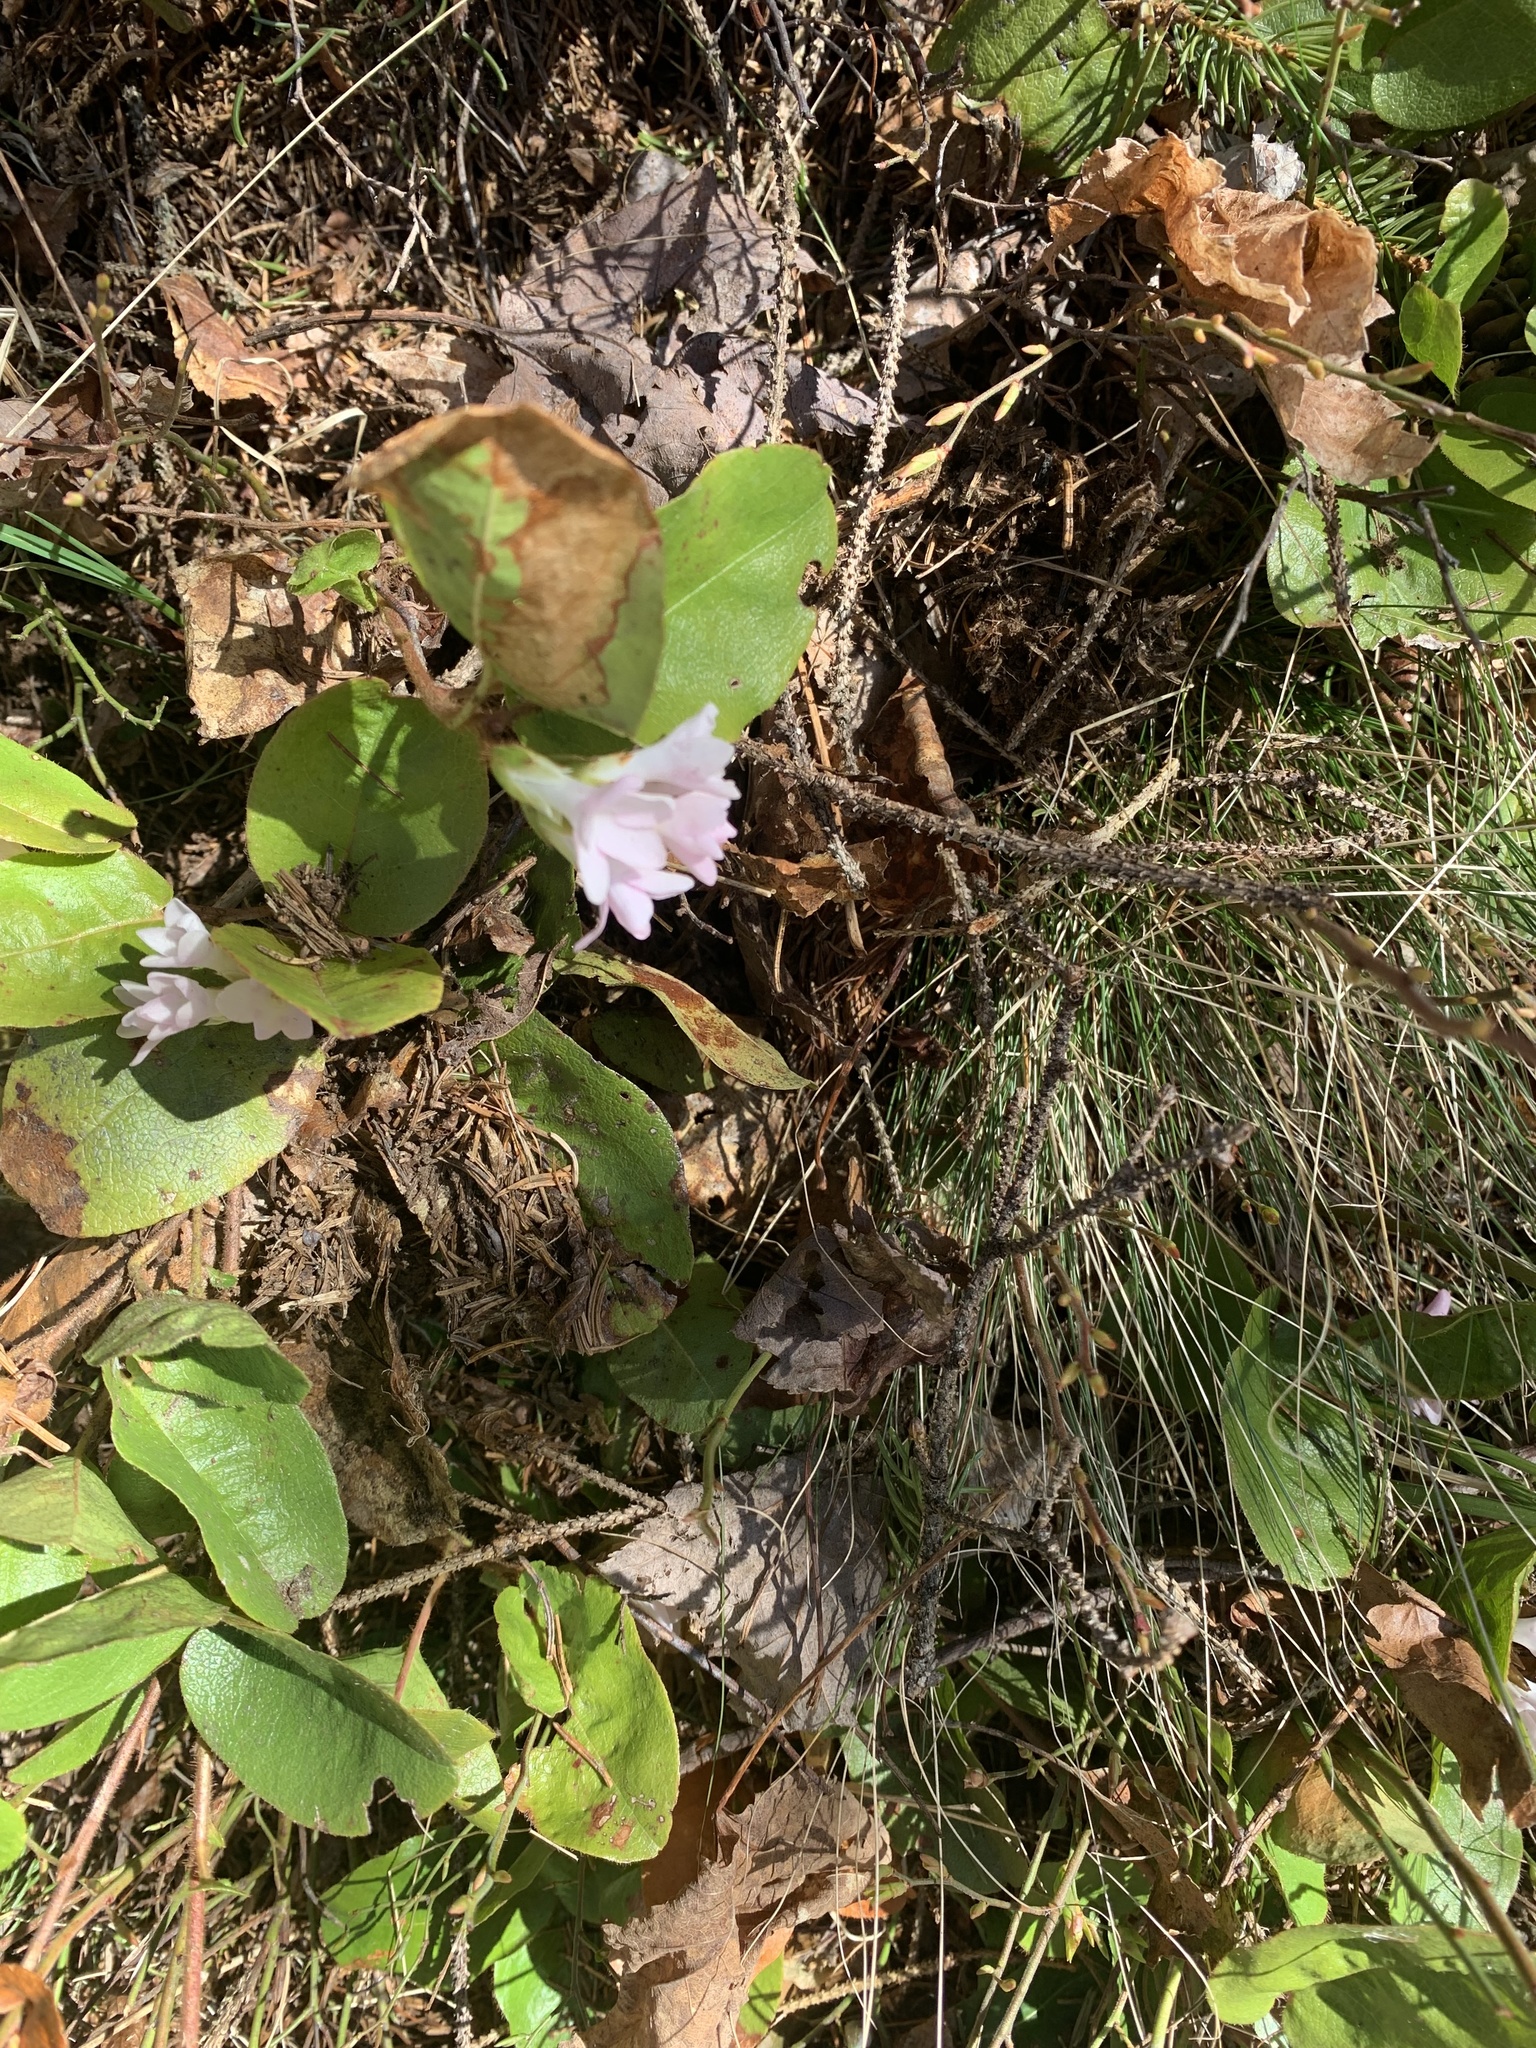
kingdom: Plantae
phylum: Tracheophyta
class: Magnoliopsida
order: Ericales
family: Ericaceae
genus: Epigaea
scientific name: Epigaea repens
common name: Gravelroot
